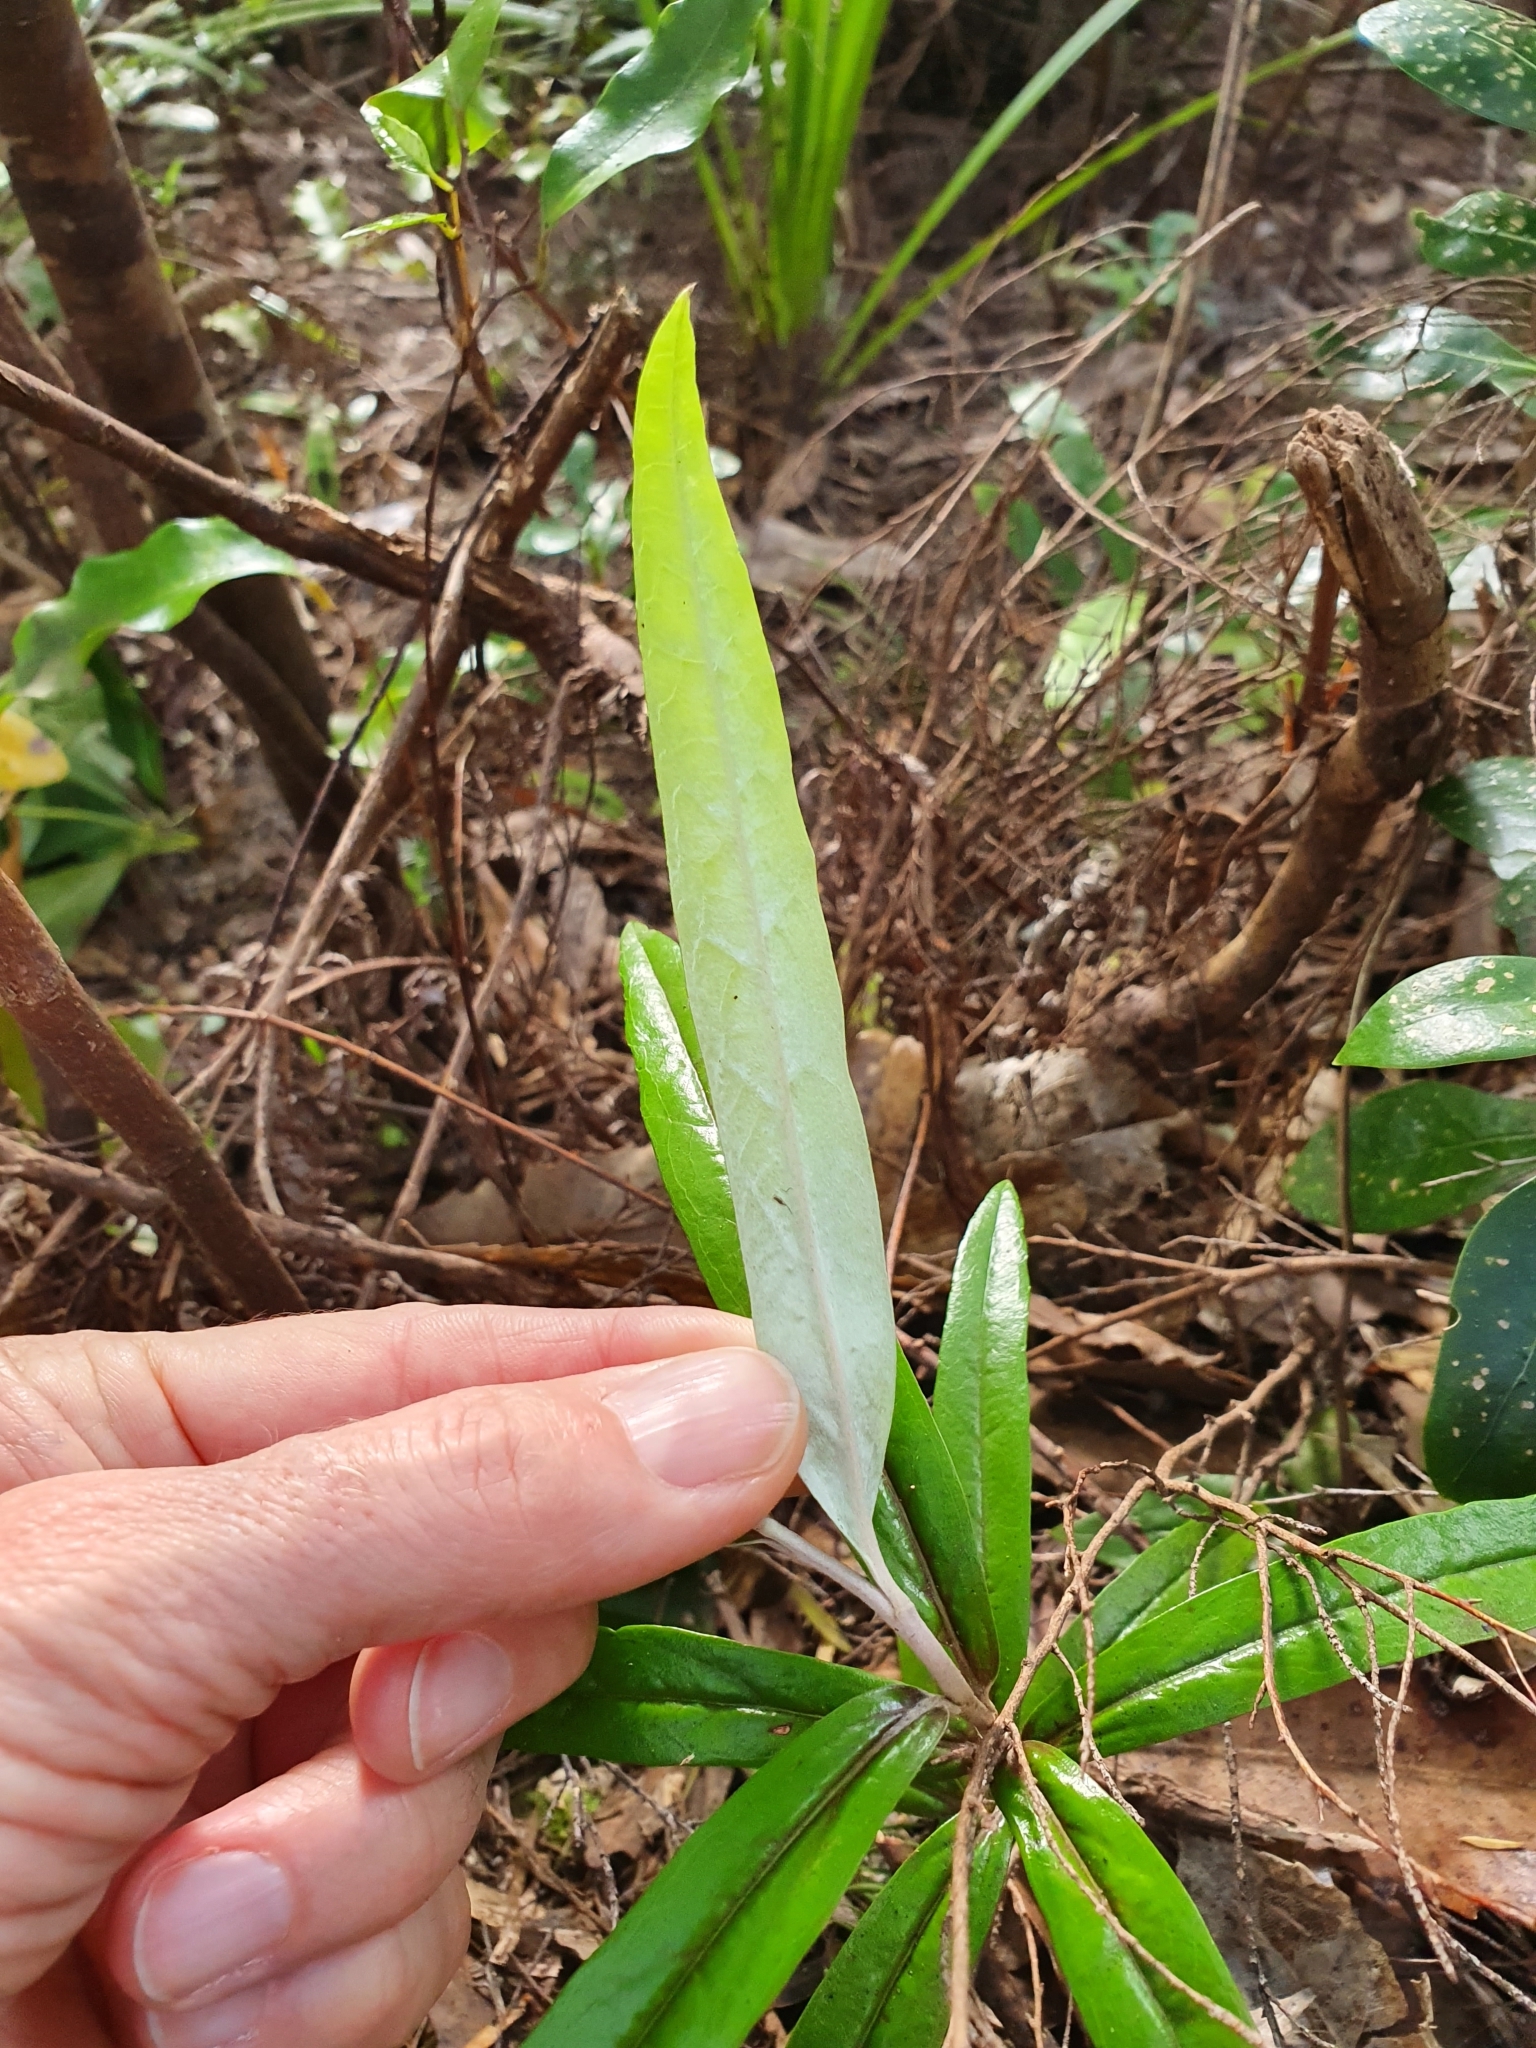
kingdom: Plantae
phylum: Tracheophyta
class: Magnoliopsida
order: Asterales
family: Argophyllaceae
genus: Corokia
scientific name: Corokia buddleioides
